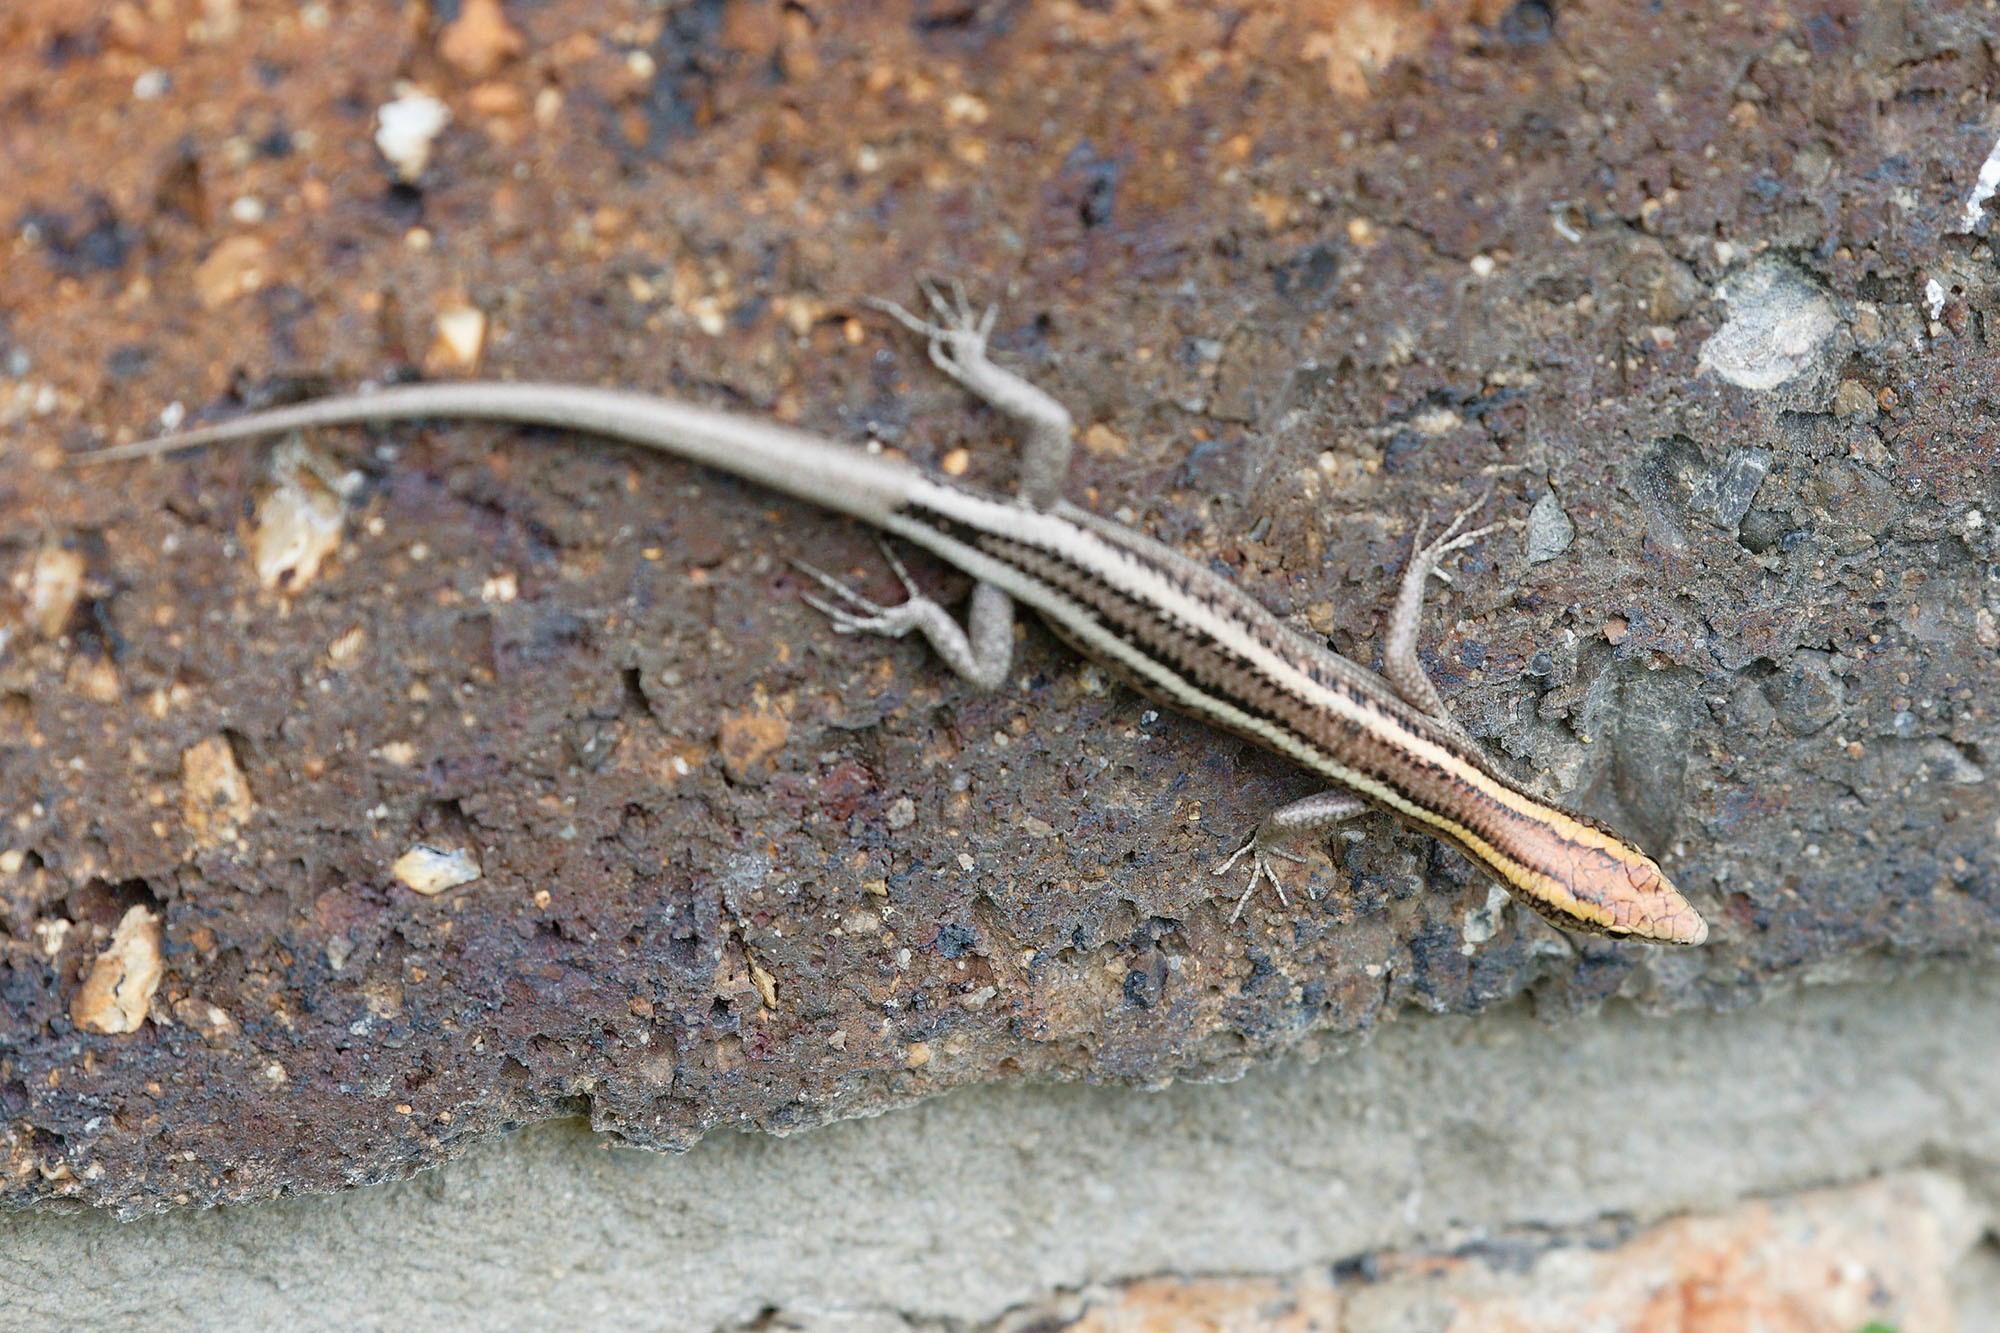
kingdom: Animalia
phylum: Chordata
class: Squamata
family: Scincidae
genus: Cryptoblepharus
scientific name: Cryptoblepharus virgatus
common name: Cream-striped shinning-skink
